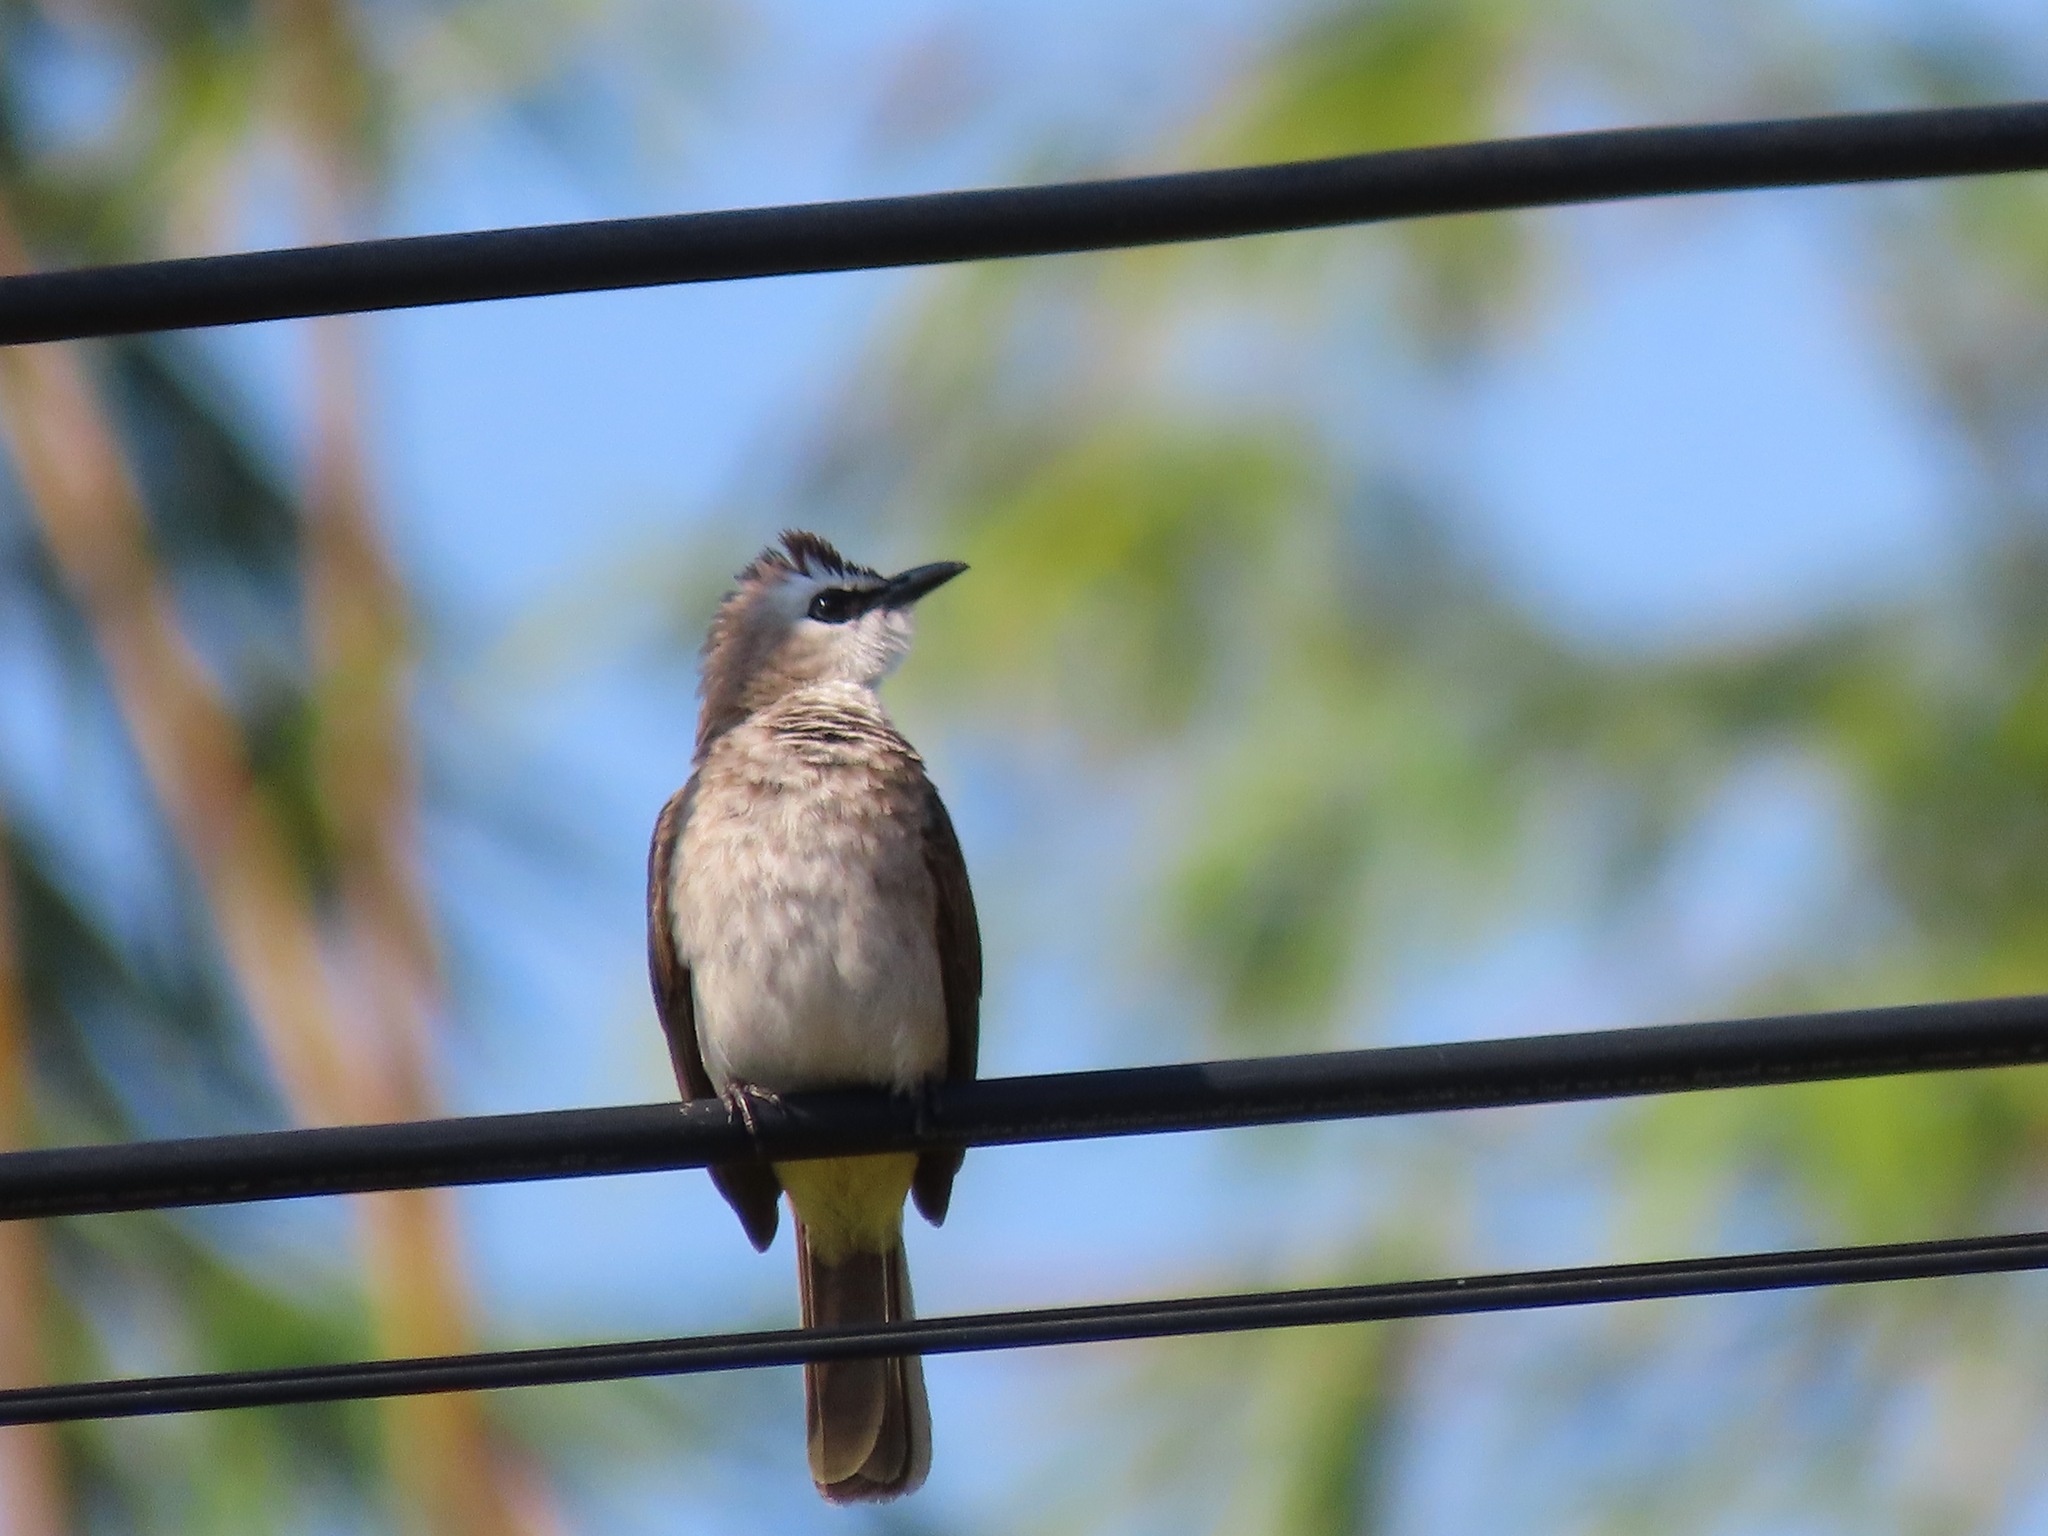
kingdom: Animalia
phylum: Chordata
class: Aves
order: Passeriformes
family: Pycnonotidae
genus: Pycnonotus
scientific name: Pycnonotus goiavier
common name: Yellow-vented bulbul
